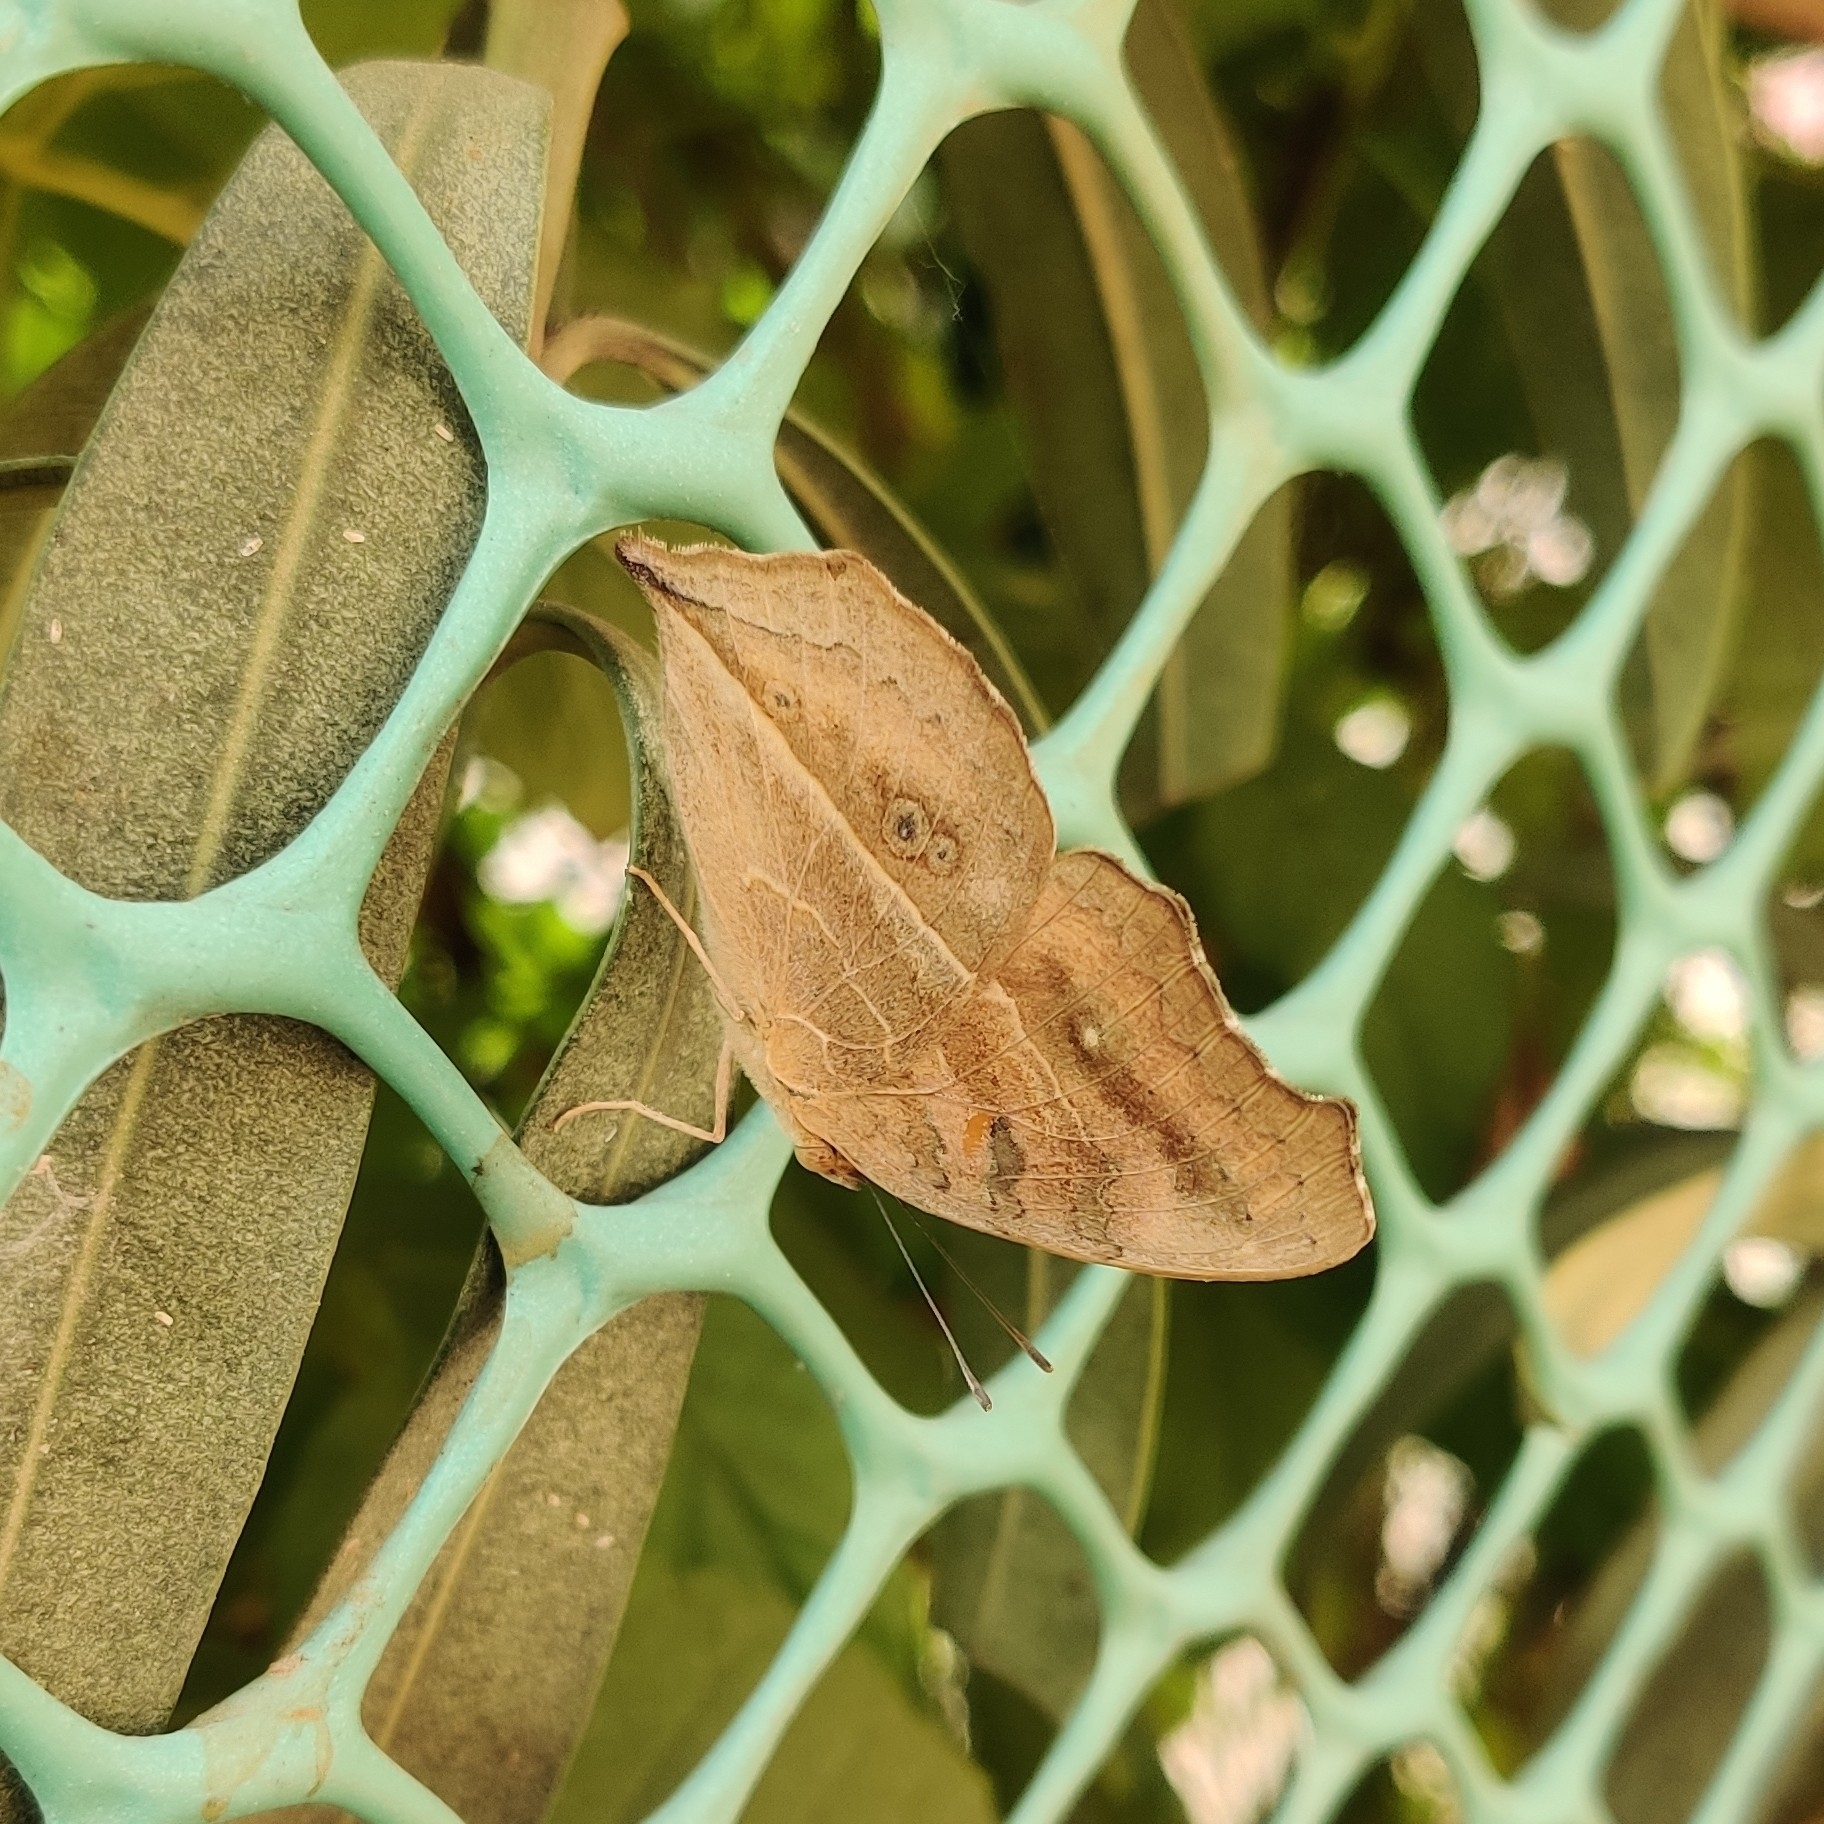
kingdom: Animalia
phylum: Arthropoda
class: Insecta
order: Lepidoptera
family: Nymphalidae
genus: Junonia
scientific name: Junonia almana
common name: Peacock pansy
